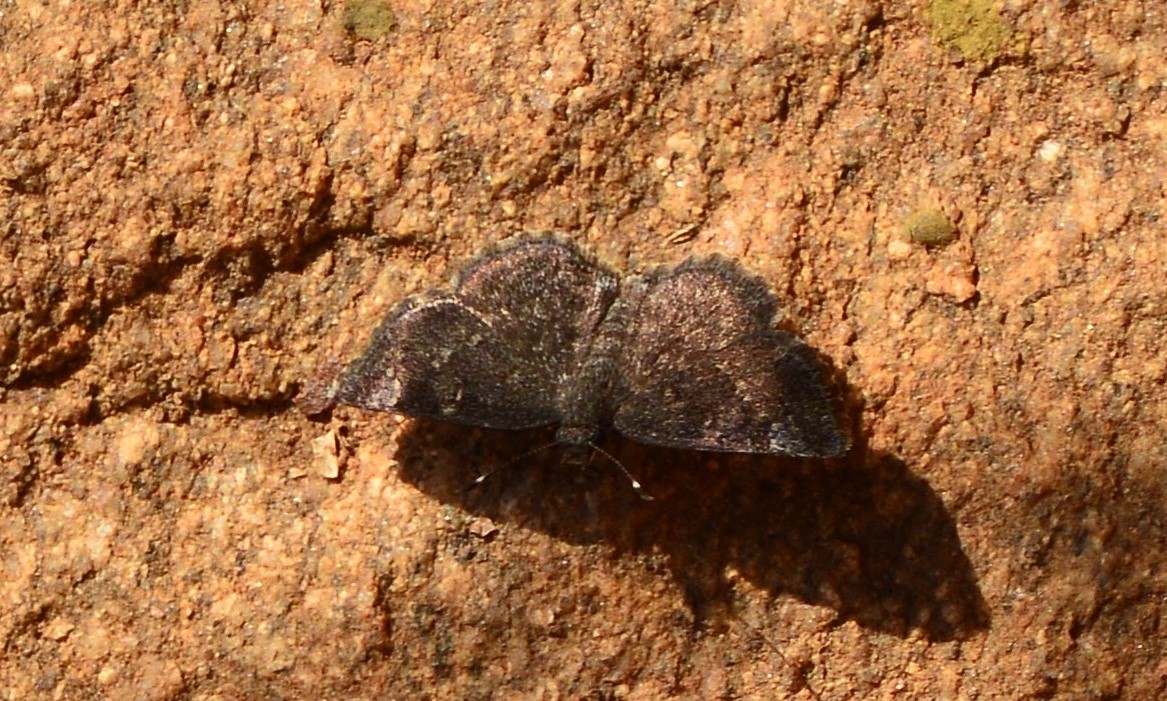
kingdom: Animalia
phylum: Arthropoda
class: Insecta
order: Lepidoptera
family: Hesperiidae
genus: Sarangesa
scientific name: Sarangesa purendra
